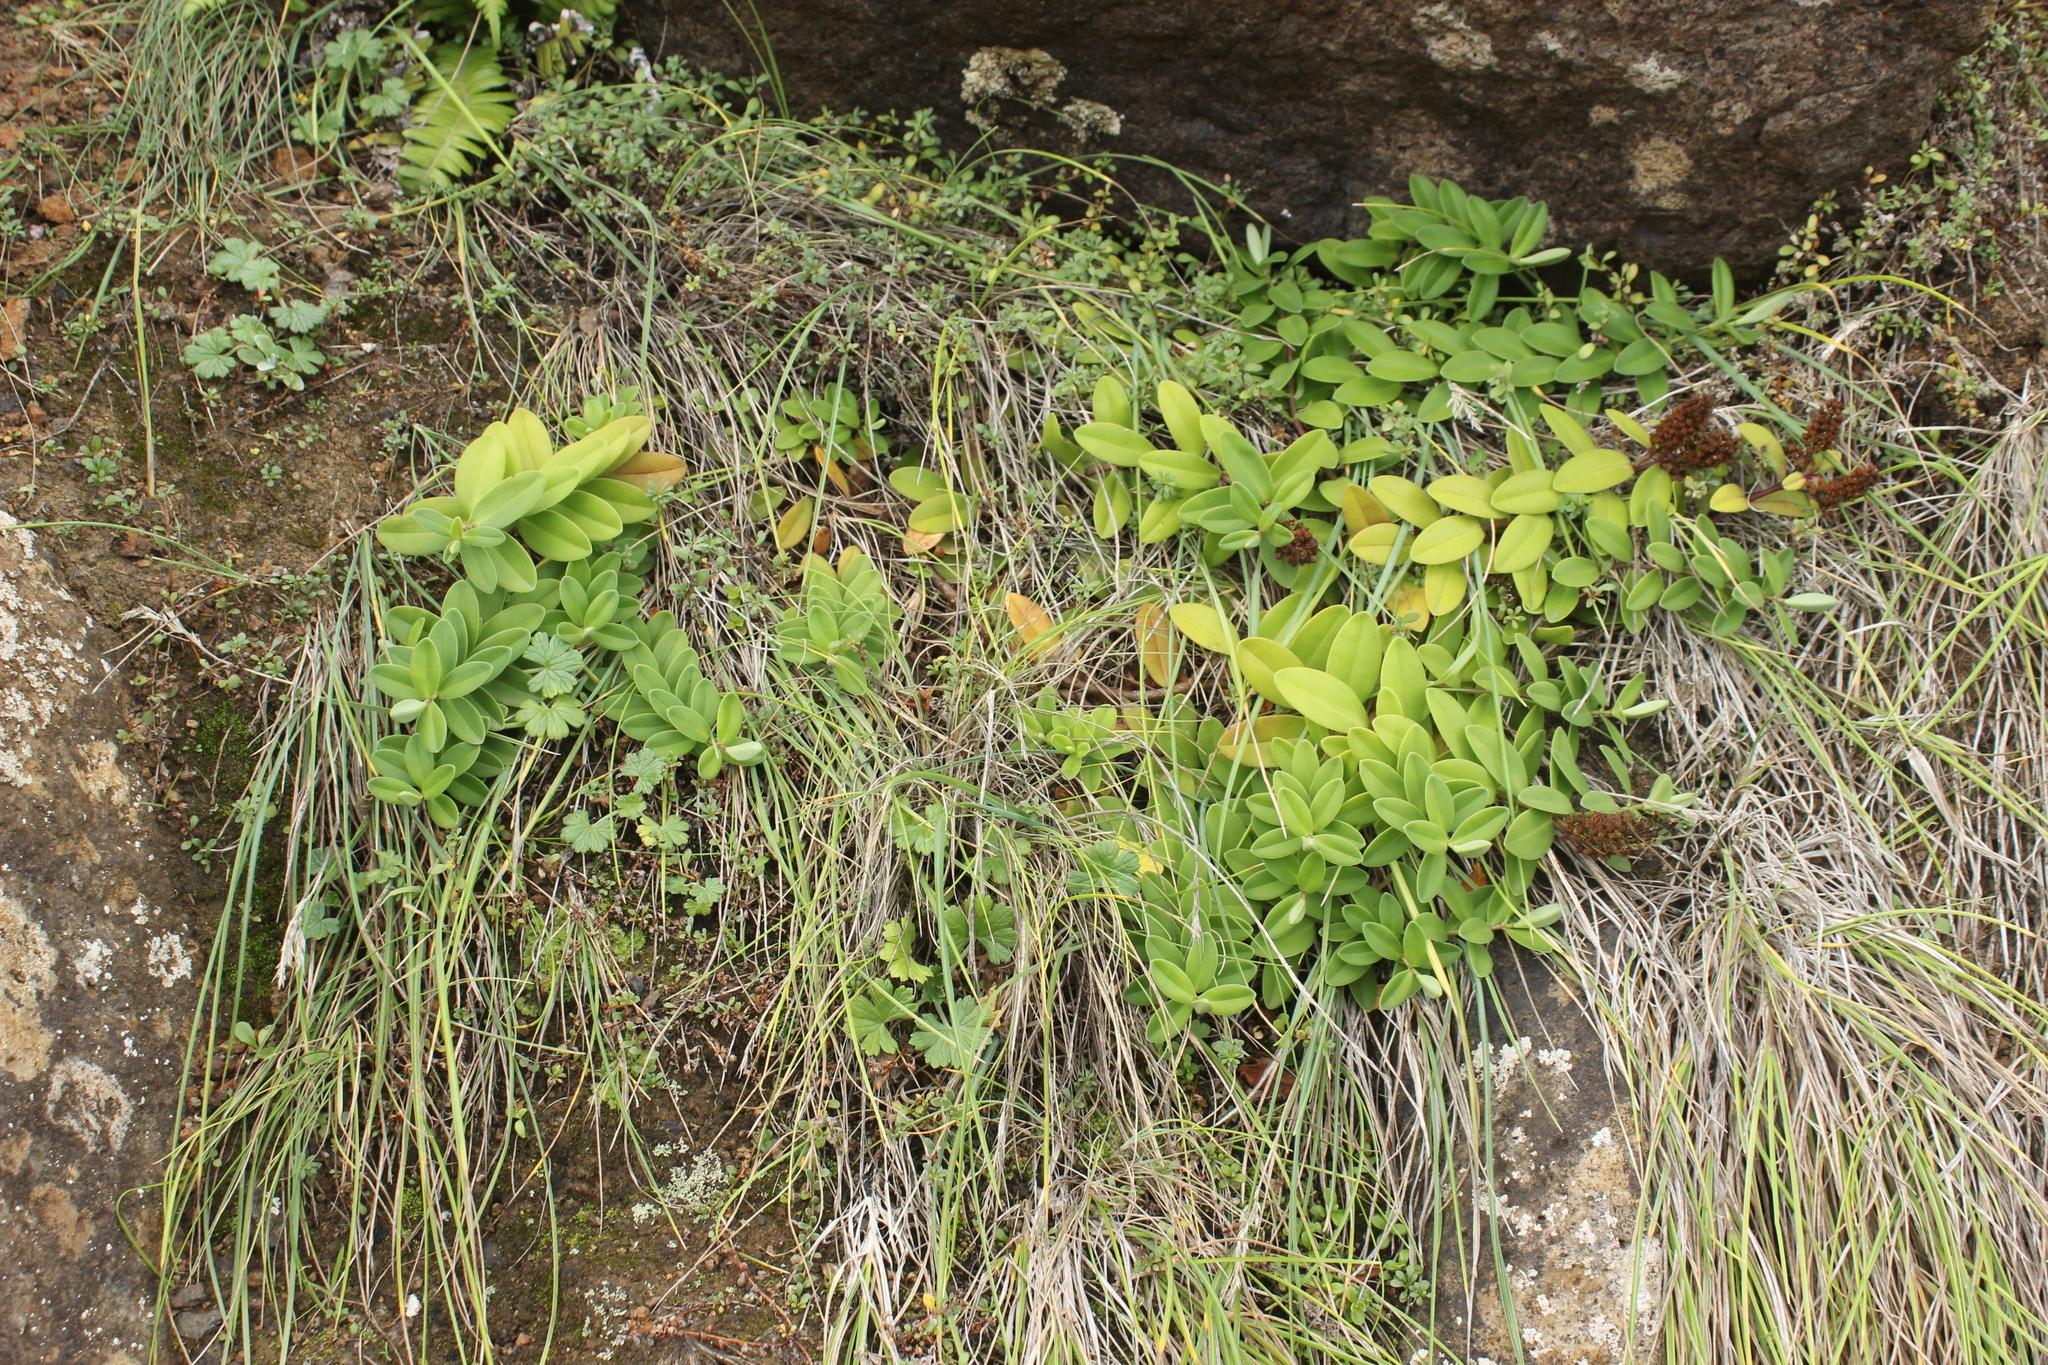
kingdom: Plantae
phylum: Tracheophyta
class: Magnoliopsida
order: Lamiales
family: Plantaginaceae
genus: Veronica
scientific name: Veronica chathamica
